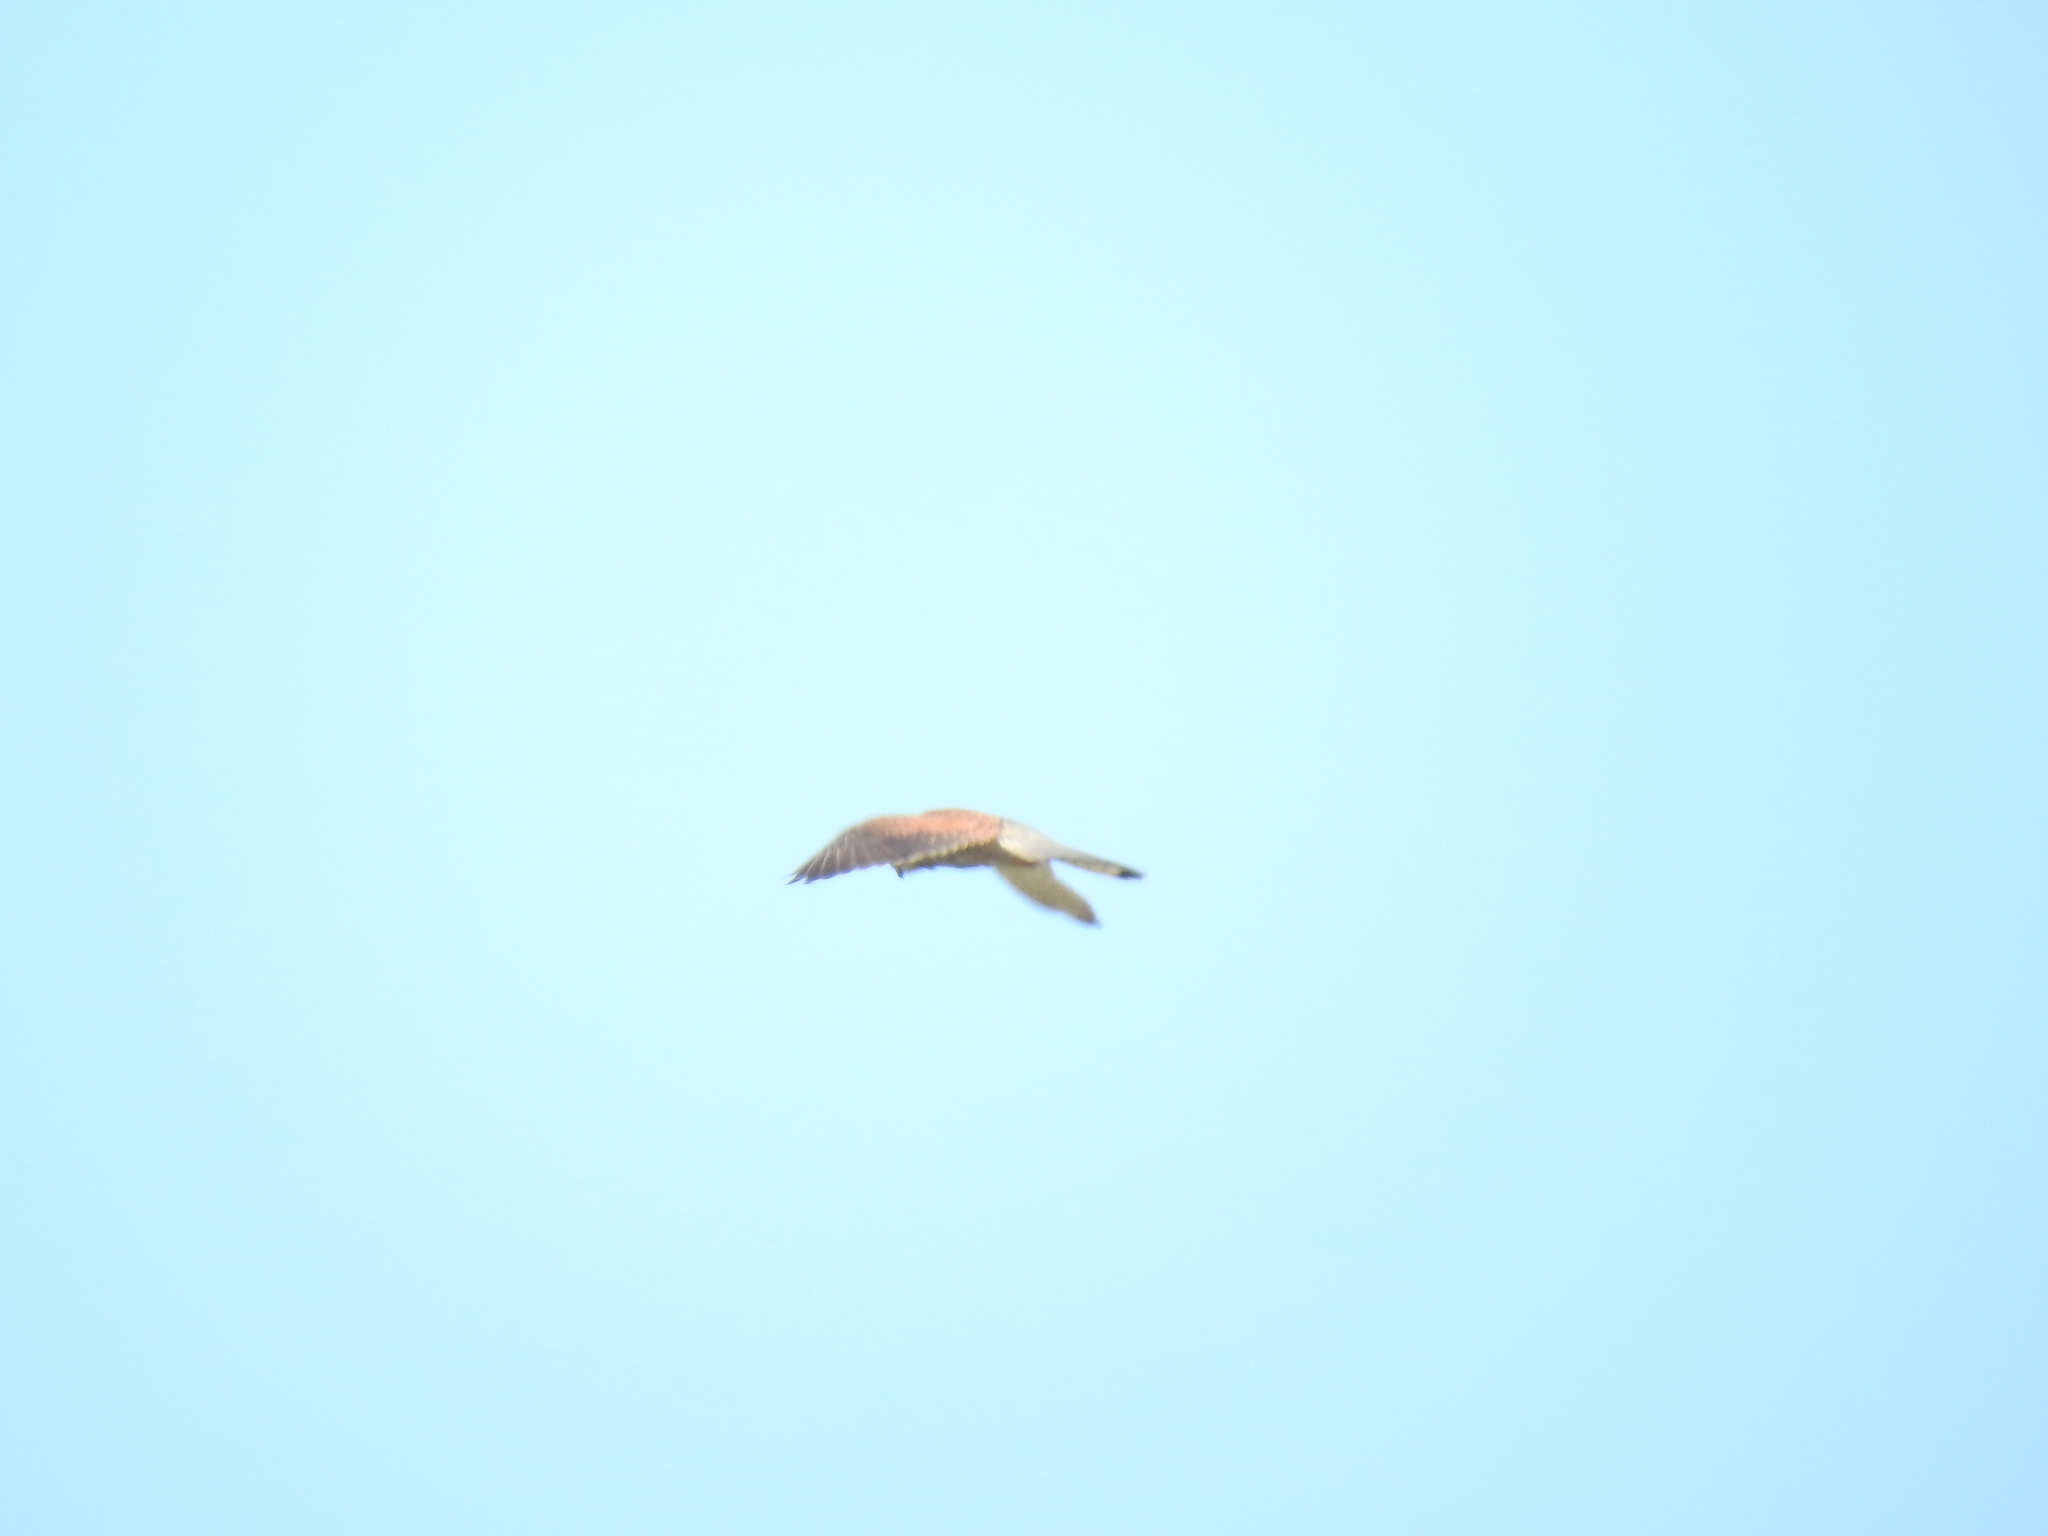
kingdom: Animalia
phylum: Chordata
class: Aves
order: Falconiformes
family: Falconidae
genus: Falco
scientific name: Falco tinnunculus
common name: Common kestrel
